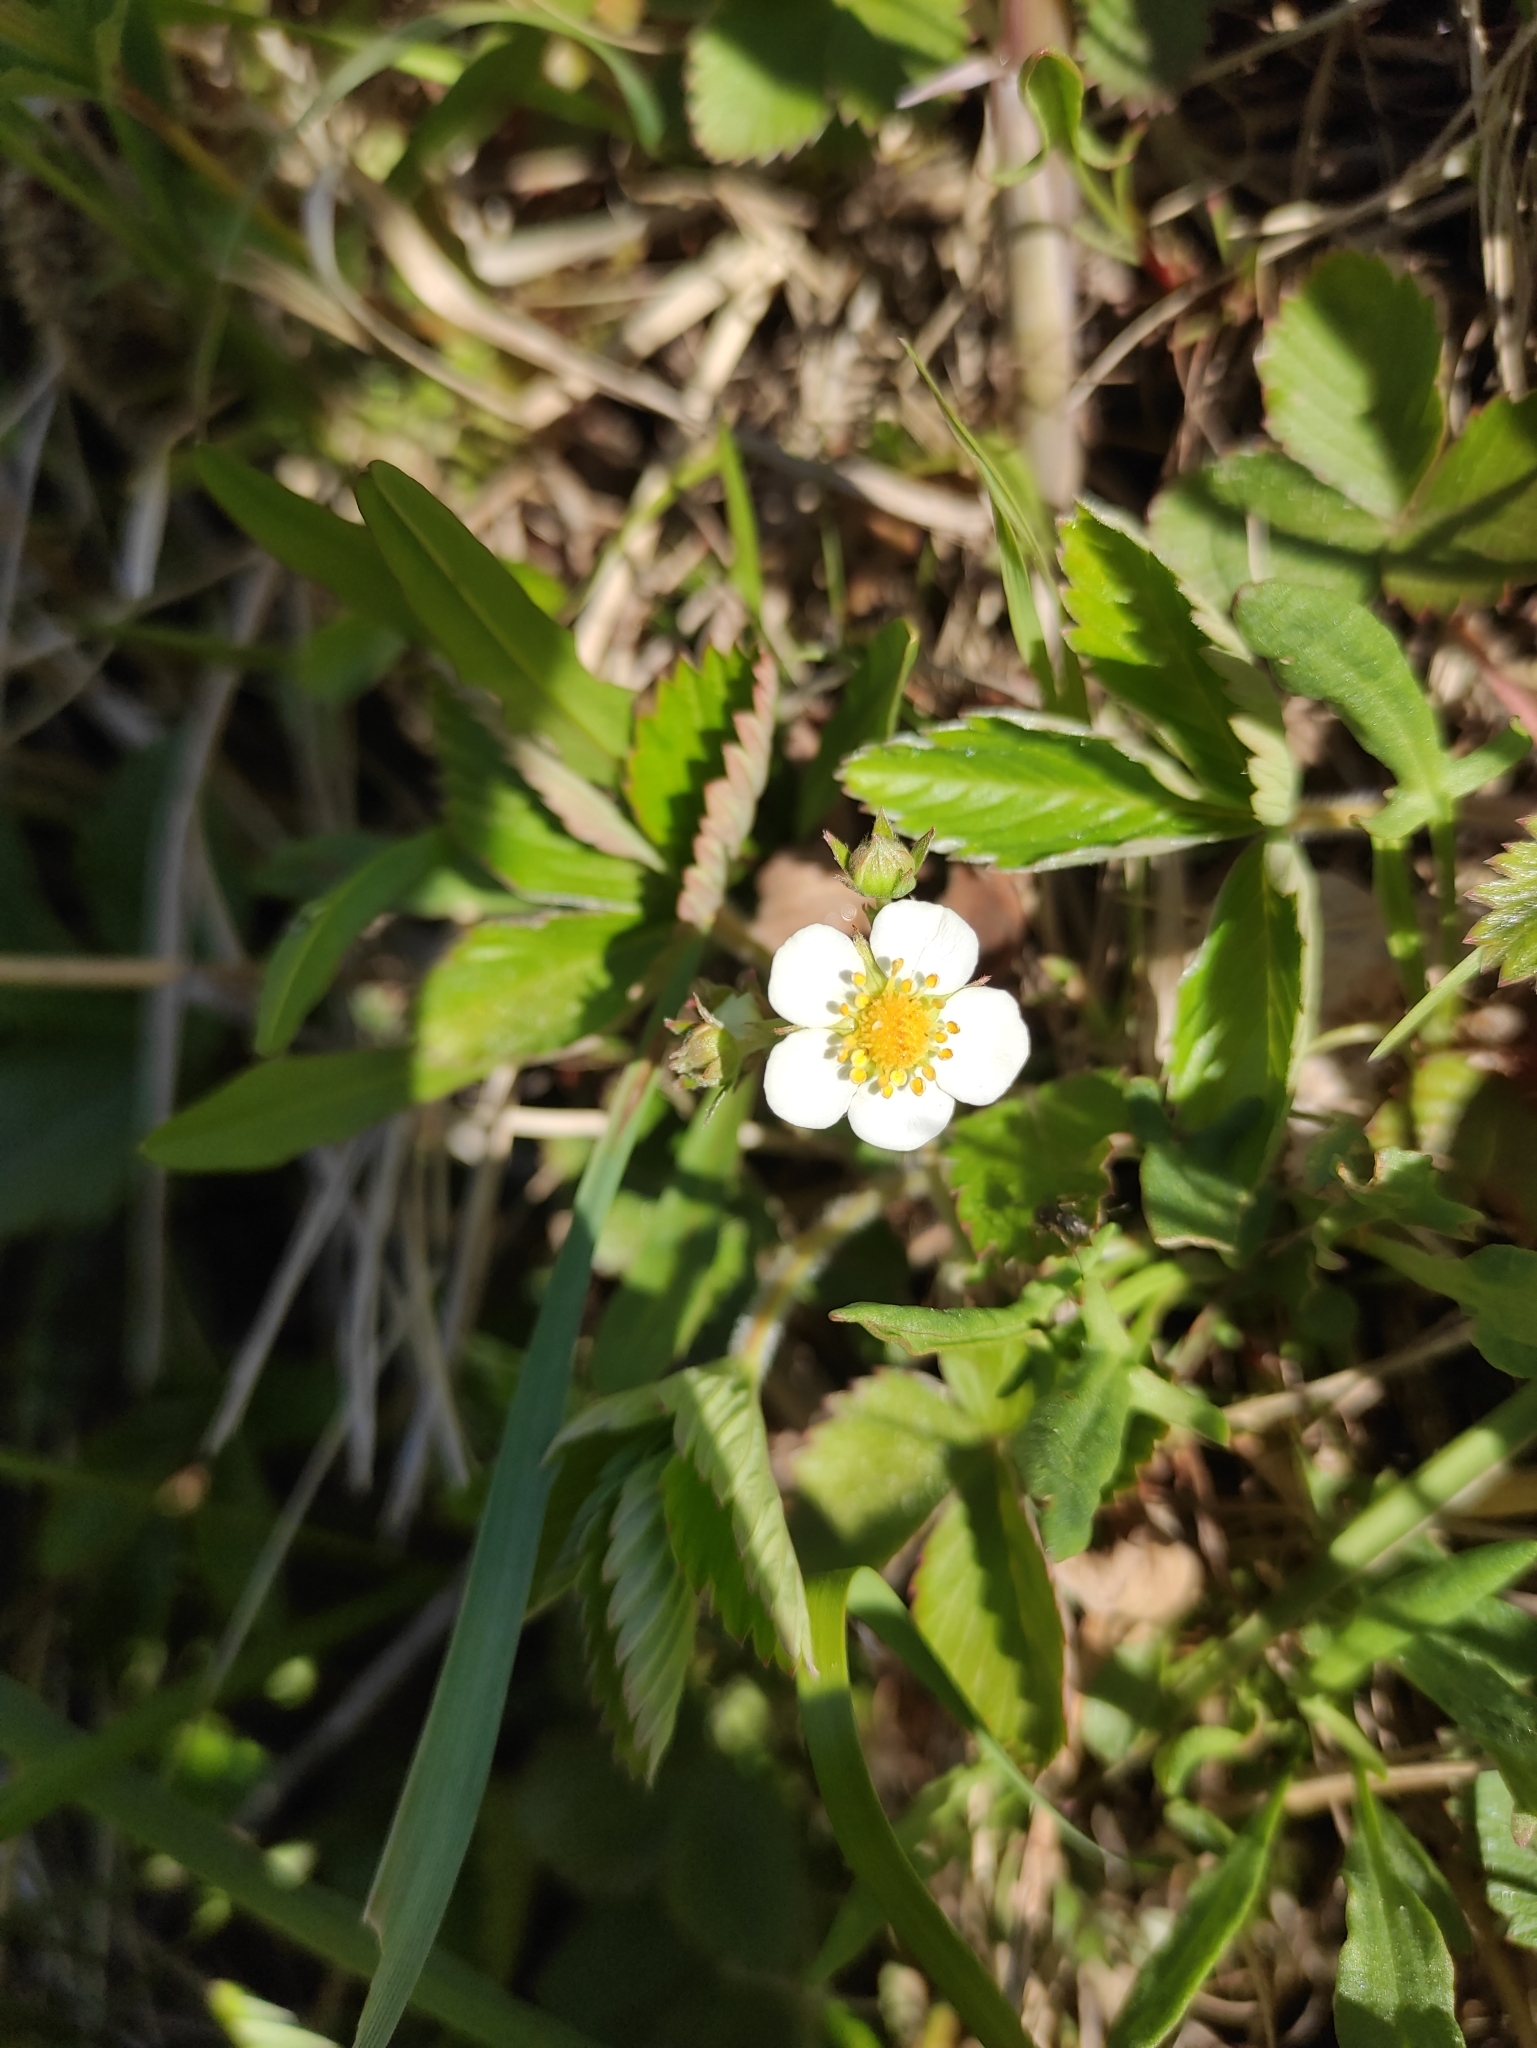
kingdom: Plantae
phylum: Tracheophyta
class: Magnoliopsida
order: Rosales
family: Rosaceae
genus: Fragaria
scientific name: Fragaria vesca
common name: Wild strawberry
